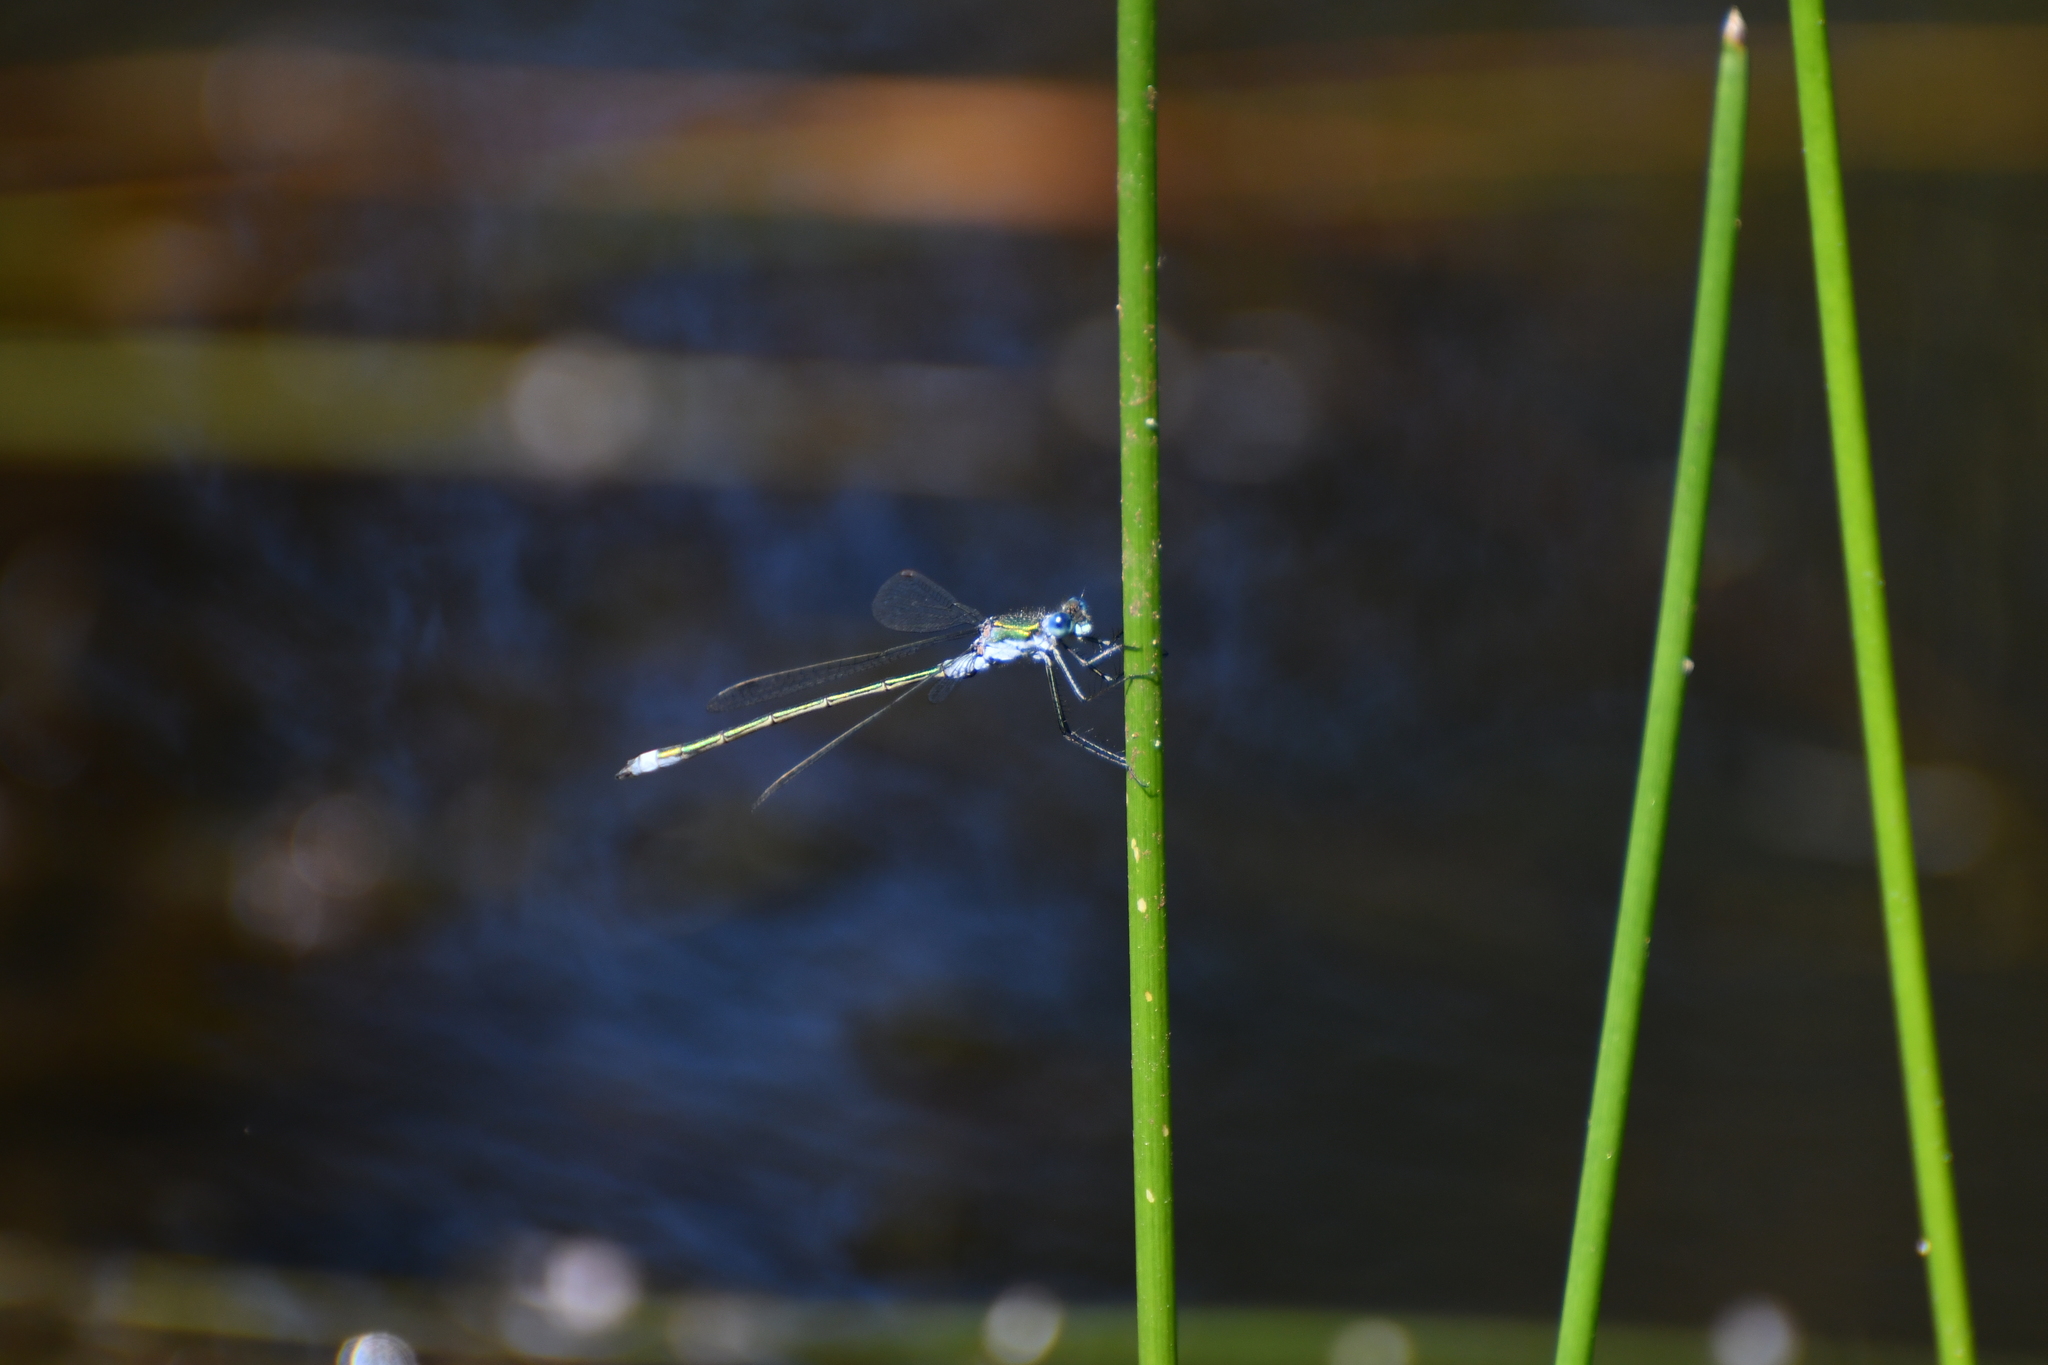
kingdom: Animalia
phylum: Arthropoda
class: Insecta
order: Odonata
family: Lestidae
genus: Lestes
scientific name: Lestes sponsa
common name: Common spreadwing
